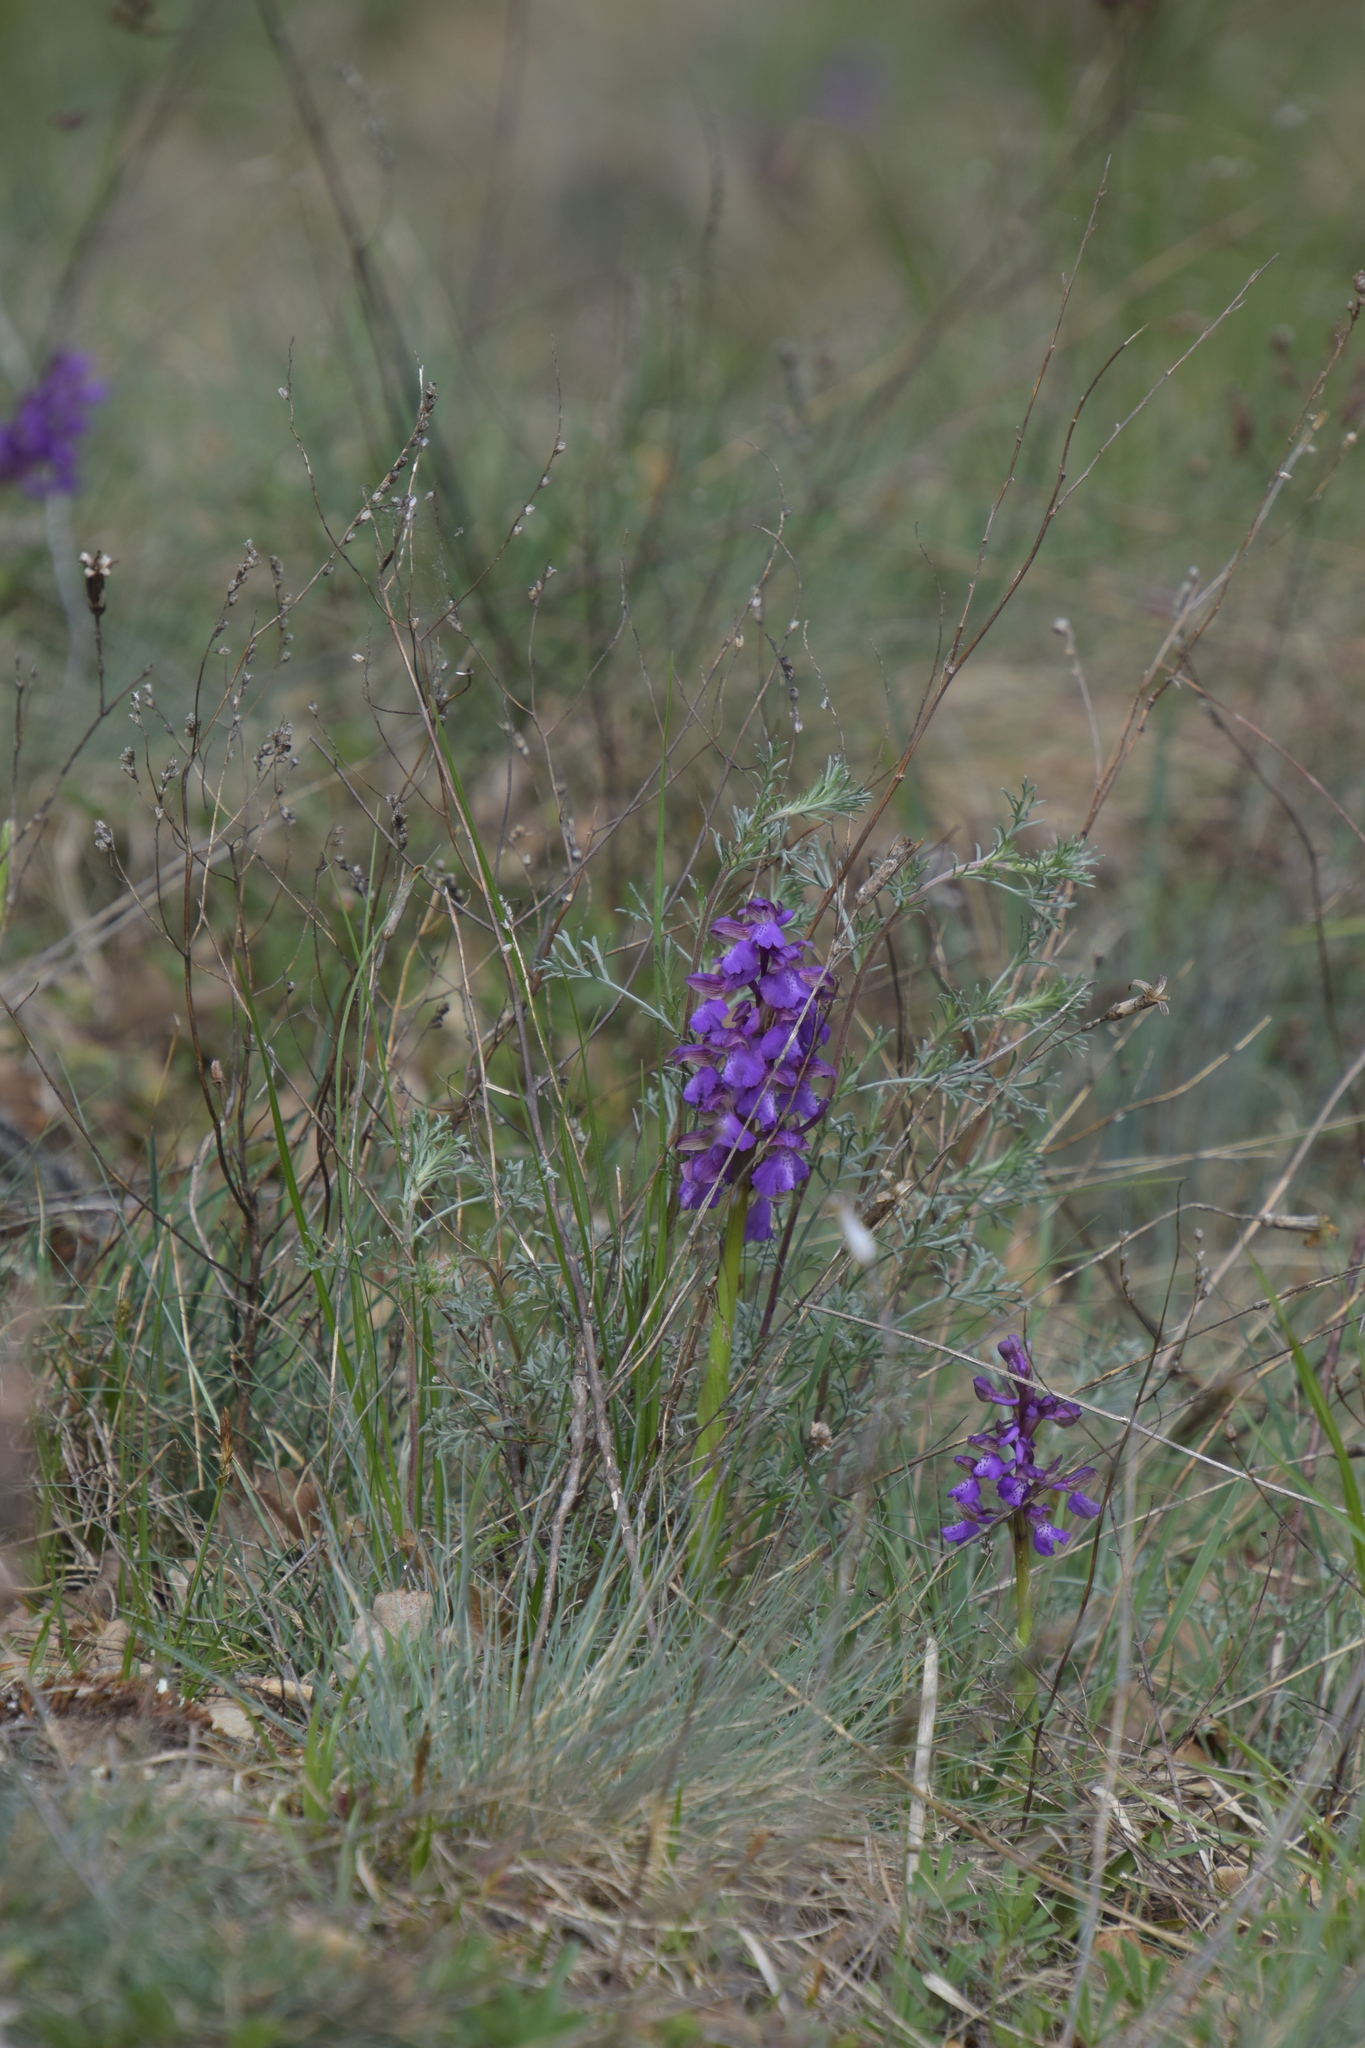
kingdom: Plantae
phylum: Tracheophyta
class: Liliopsida
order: Asparagales
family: Orchidaceae
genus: Anacamptis
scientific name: Anacamptis morio
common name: Green-winged orchid
